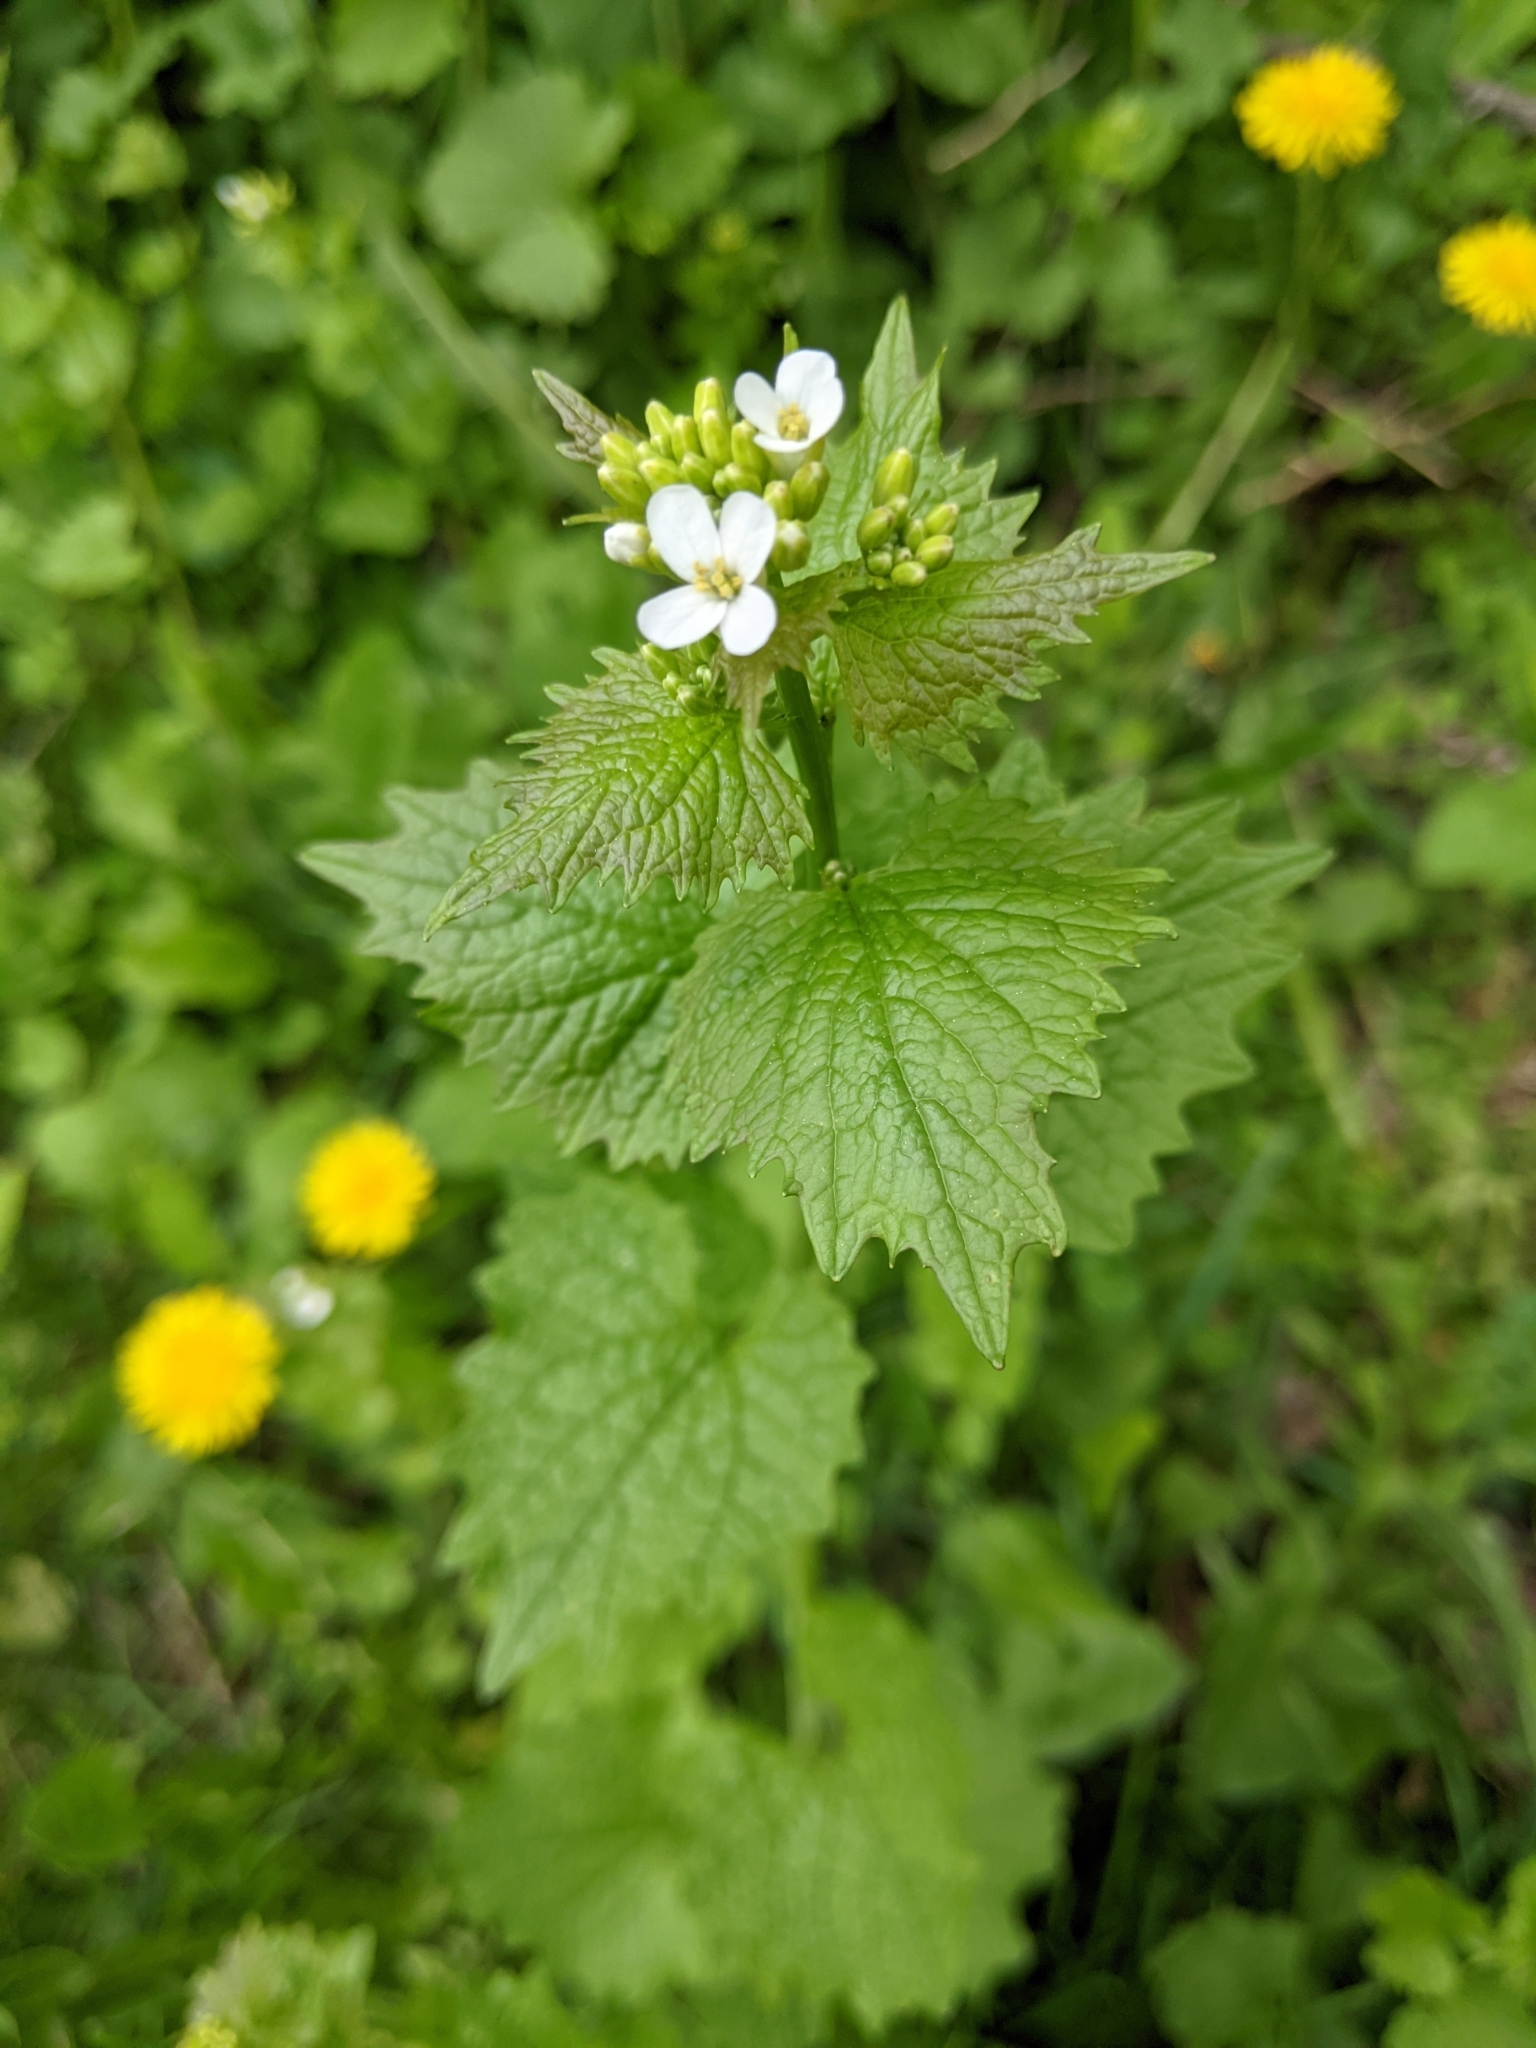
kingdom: Plantae
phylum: Tracheophyta
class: Magnoliopsida
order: Brassicales
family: Brassicaceae
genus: Alliaria
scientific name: Alliaria petiolata
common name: Garlic mustard
